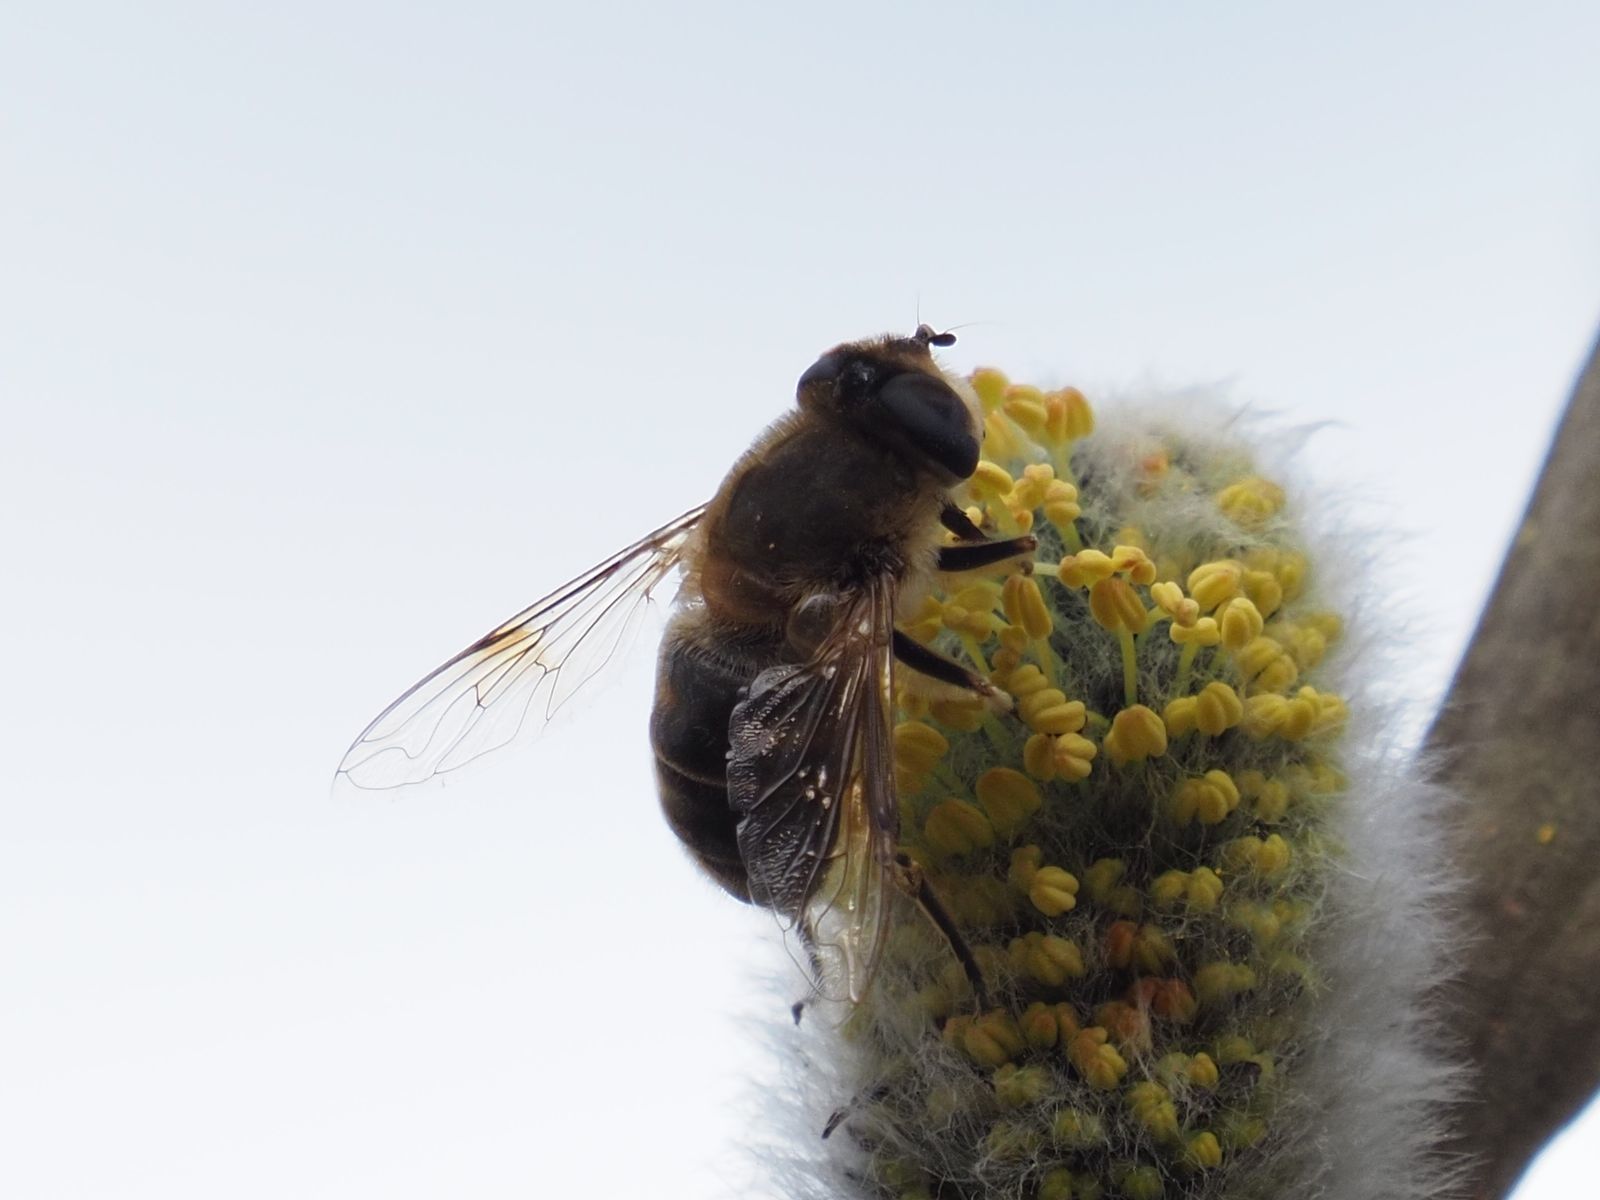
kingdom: Animalia
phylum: Arthropoda
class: Insecta
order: Diptera
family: Syrphidae
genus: Eristalis
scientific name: Eristalis tenax
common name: Drone fly
